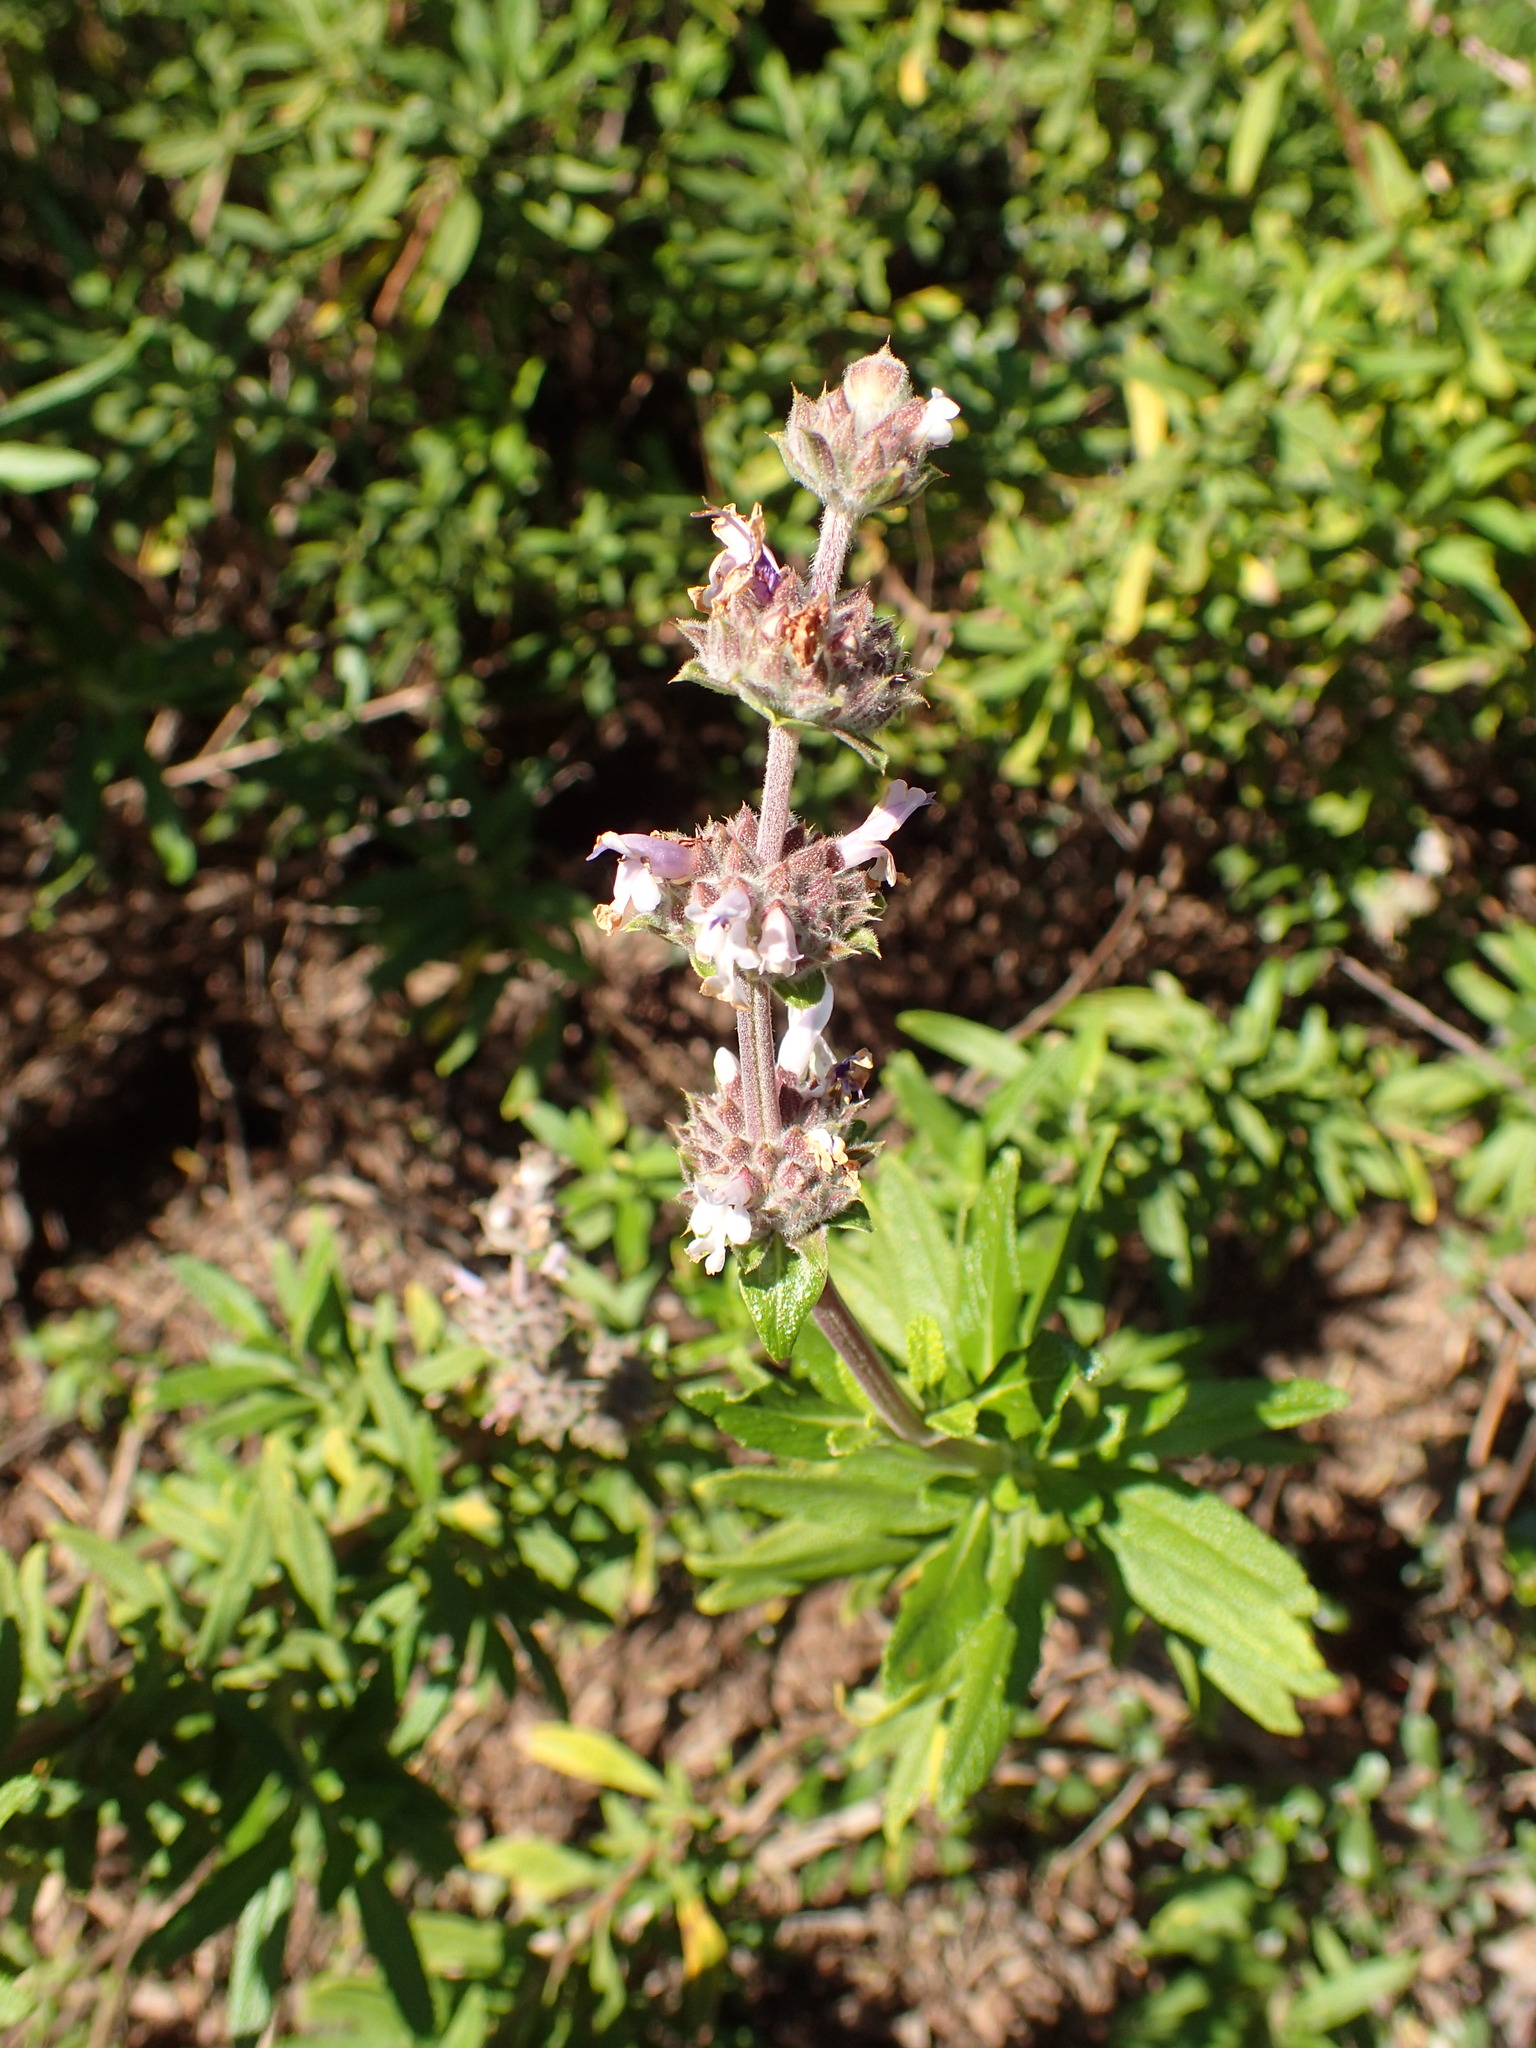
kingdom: Plantae
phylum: Tracheophyta
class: Magnoliopsida
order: Lamiales
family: Lamiaceae
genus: Salvia
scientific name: Salvia mellifera
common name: Black sage
